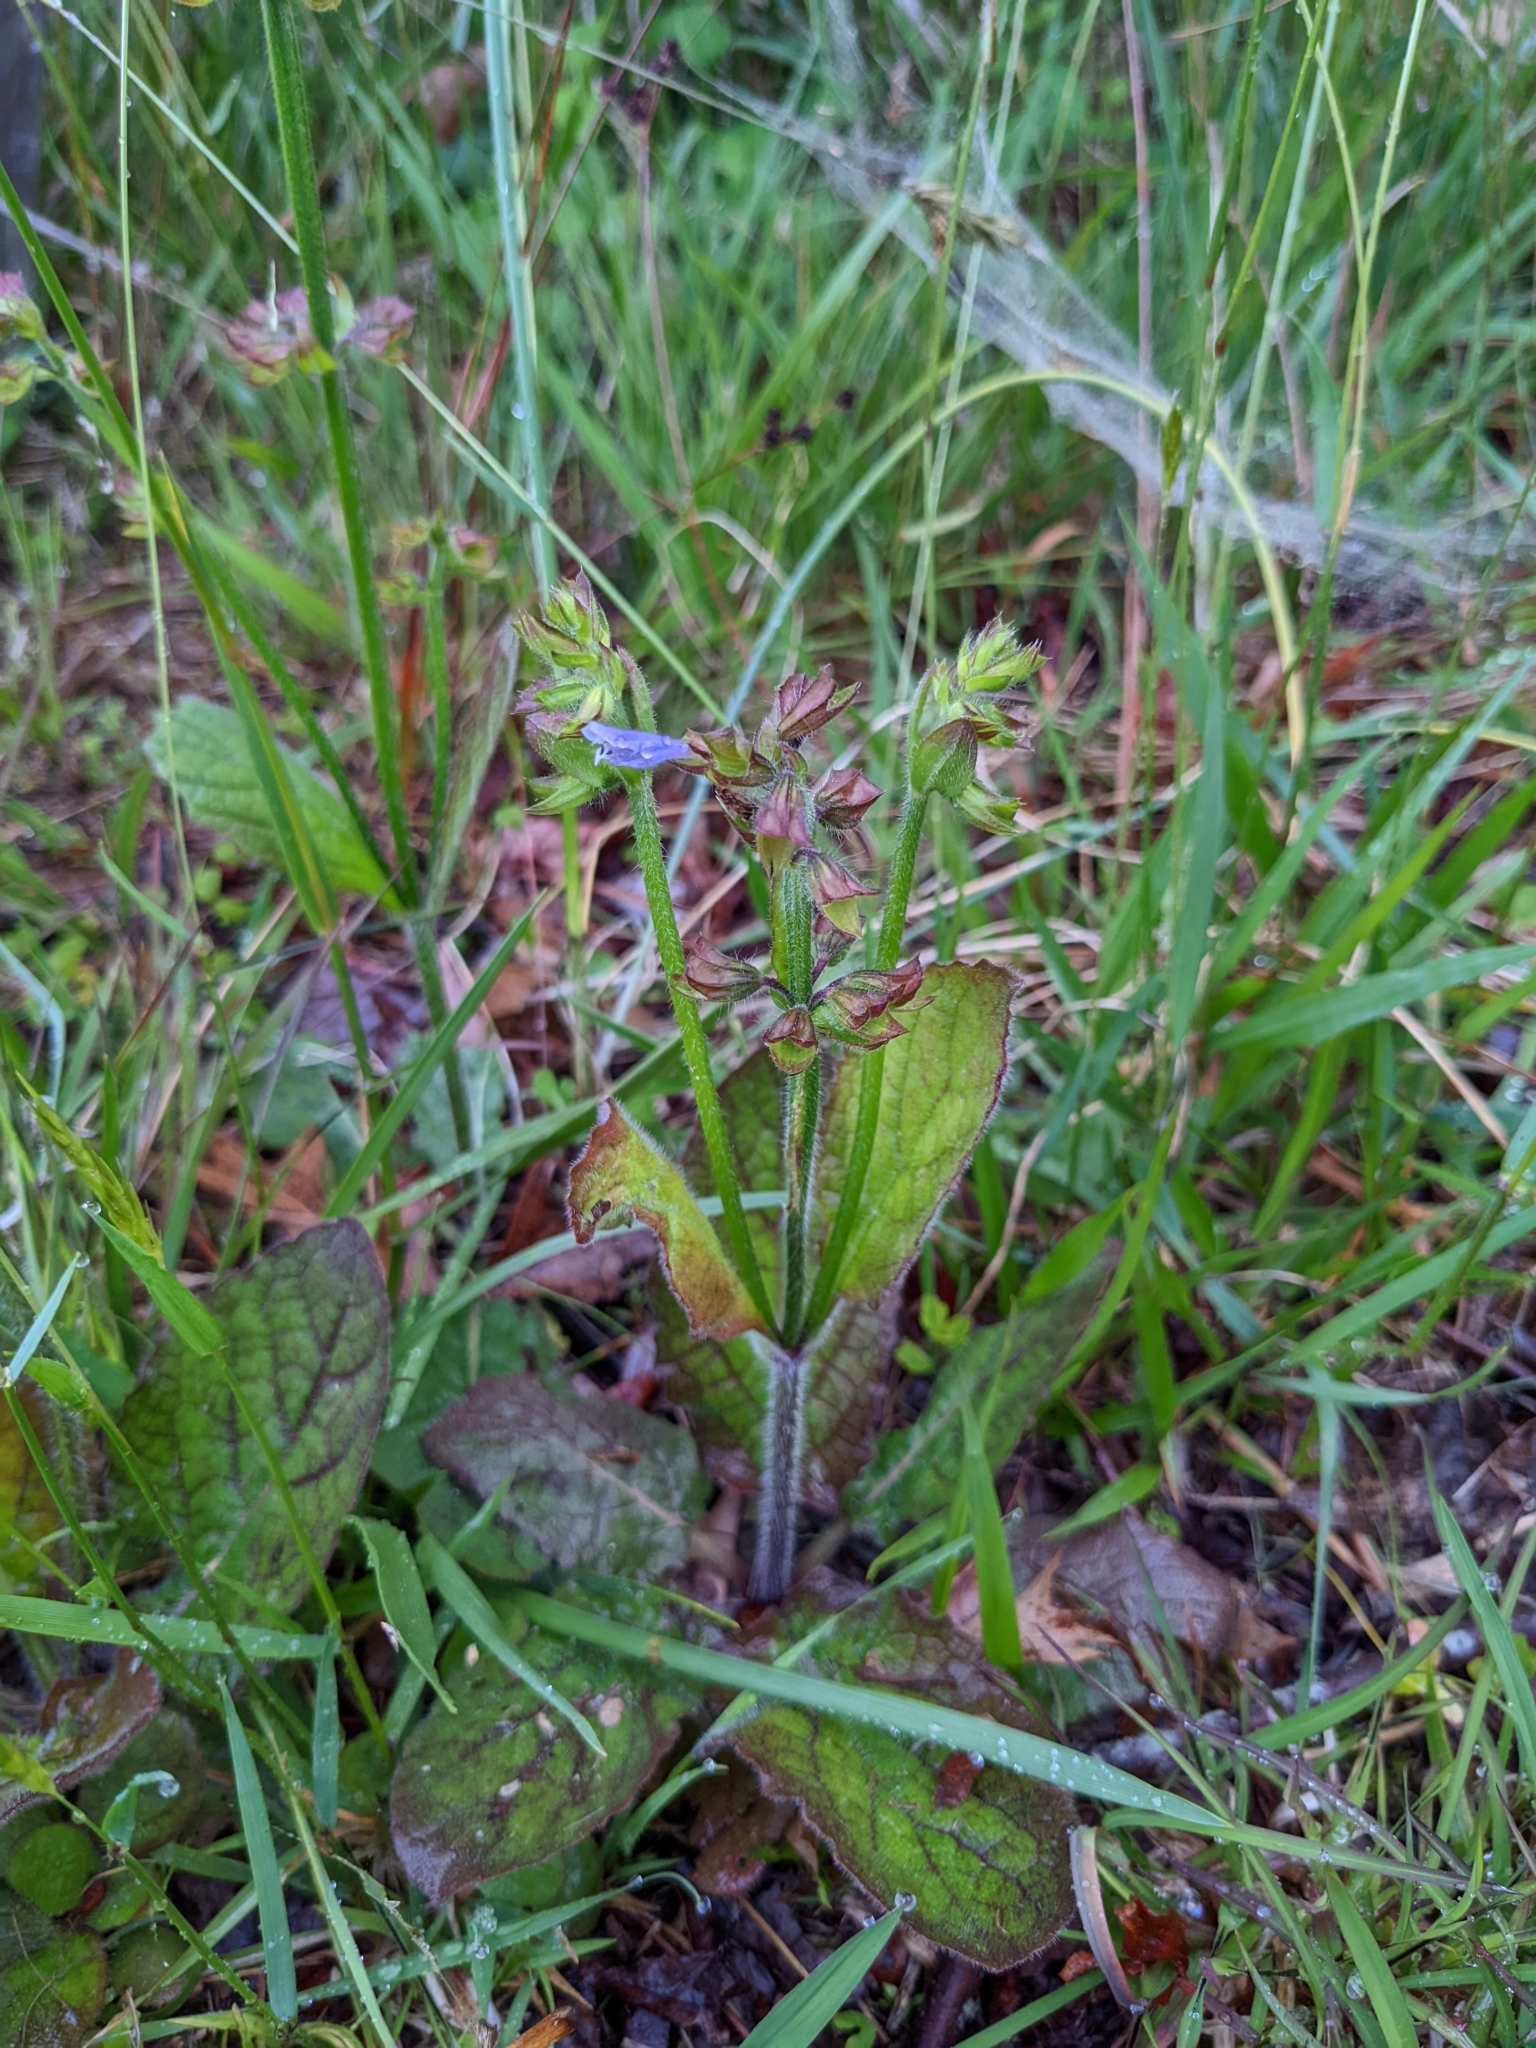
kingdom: Plantae
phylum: Tracheophyta
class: Magnoliopsida
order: Lamiales
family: Lamiaceae
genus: Salvia
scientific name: Salvia lyrata
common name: Cancerweed
